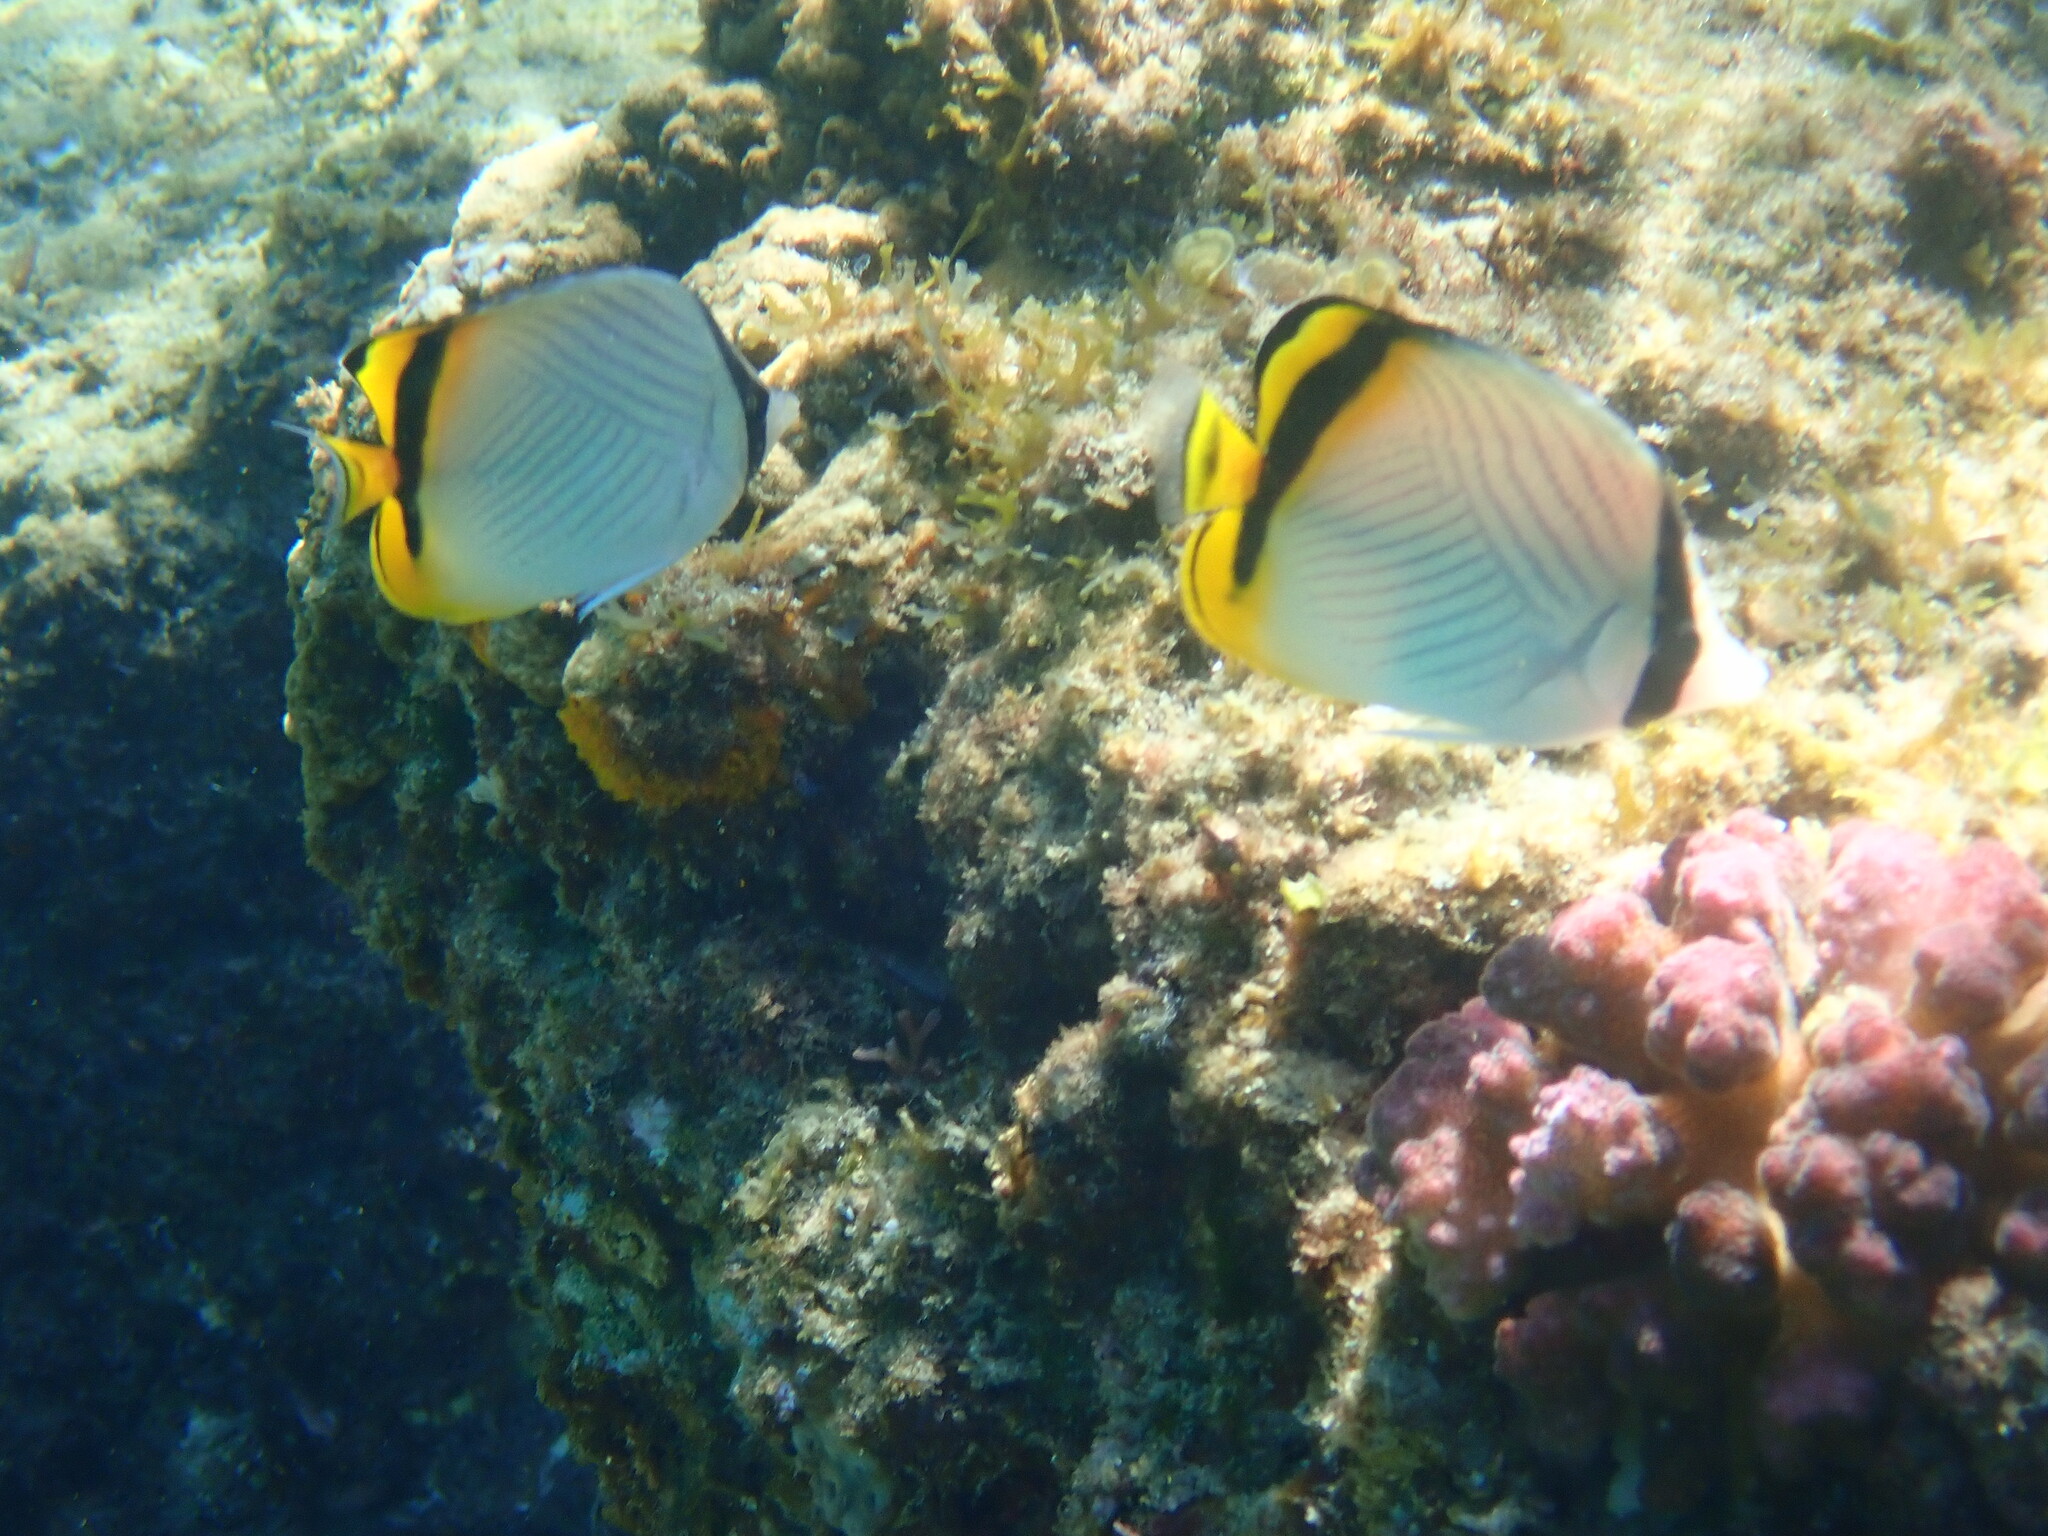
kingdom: Animalia
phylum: Chordata
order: Perciformes
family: Chaetodontidae
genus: Chaetodon
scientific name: Chaetodon vagabundus
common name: Vagabond butterflyfish
